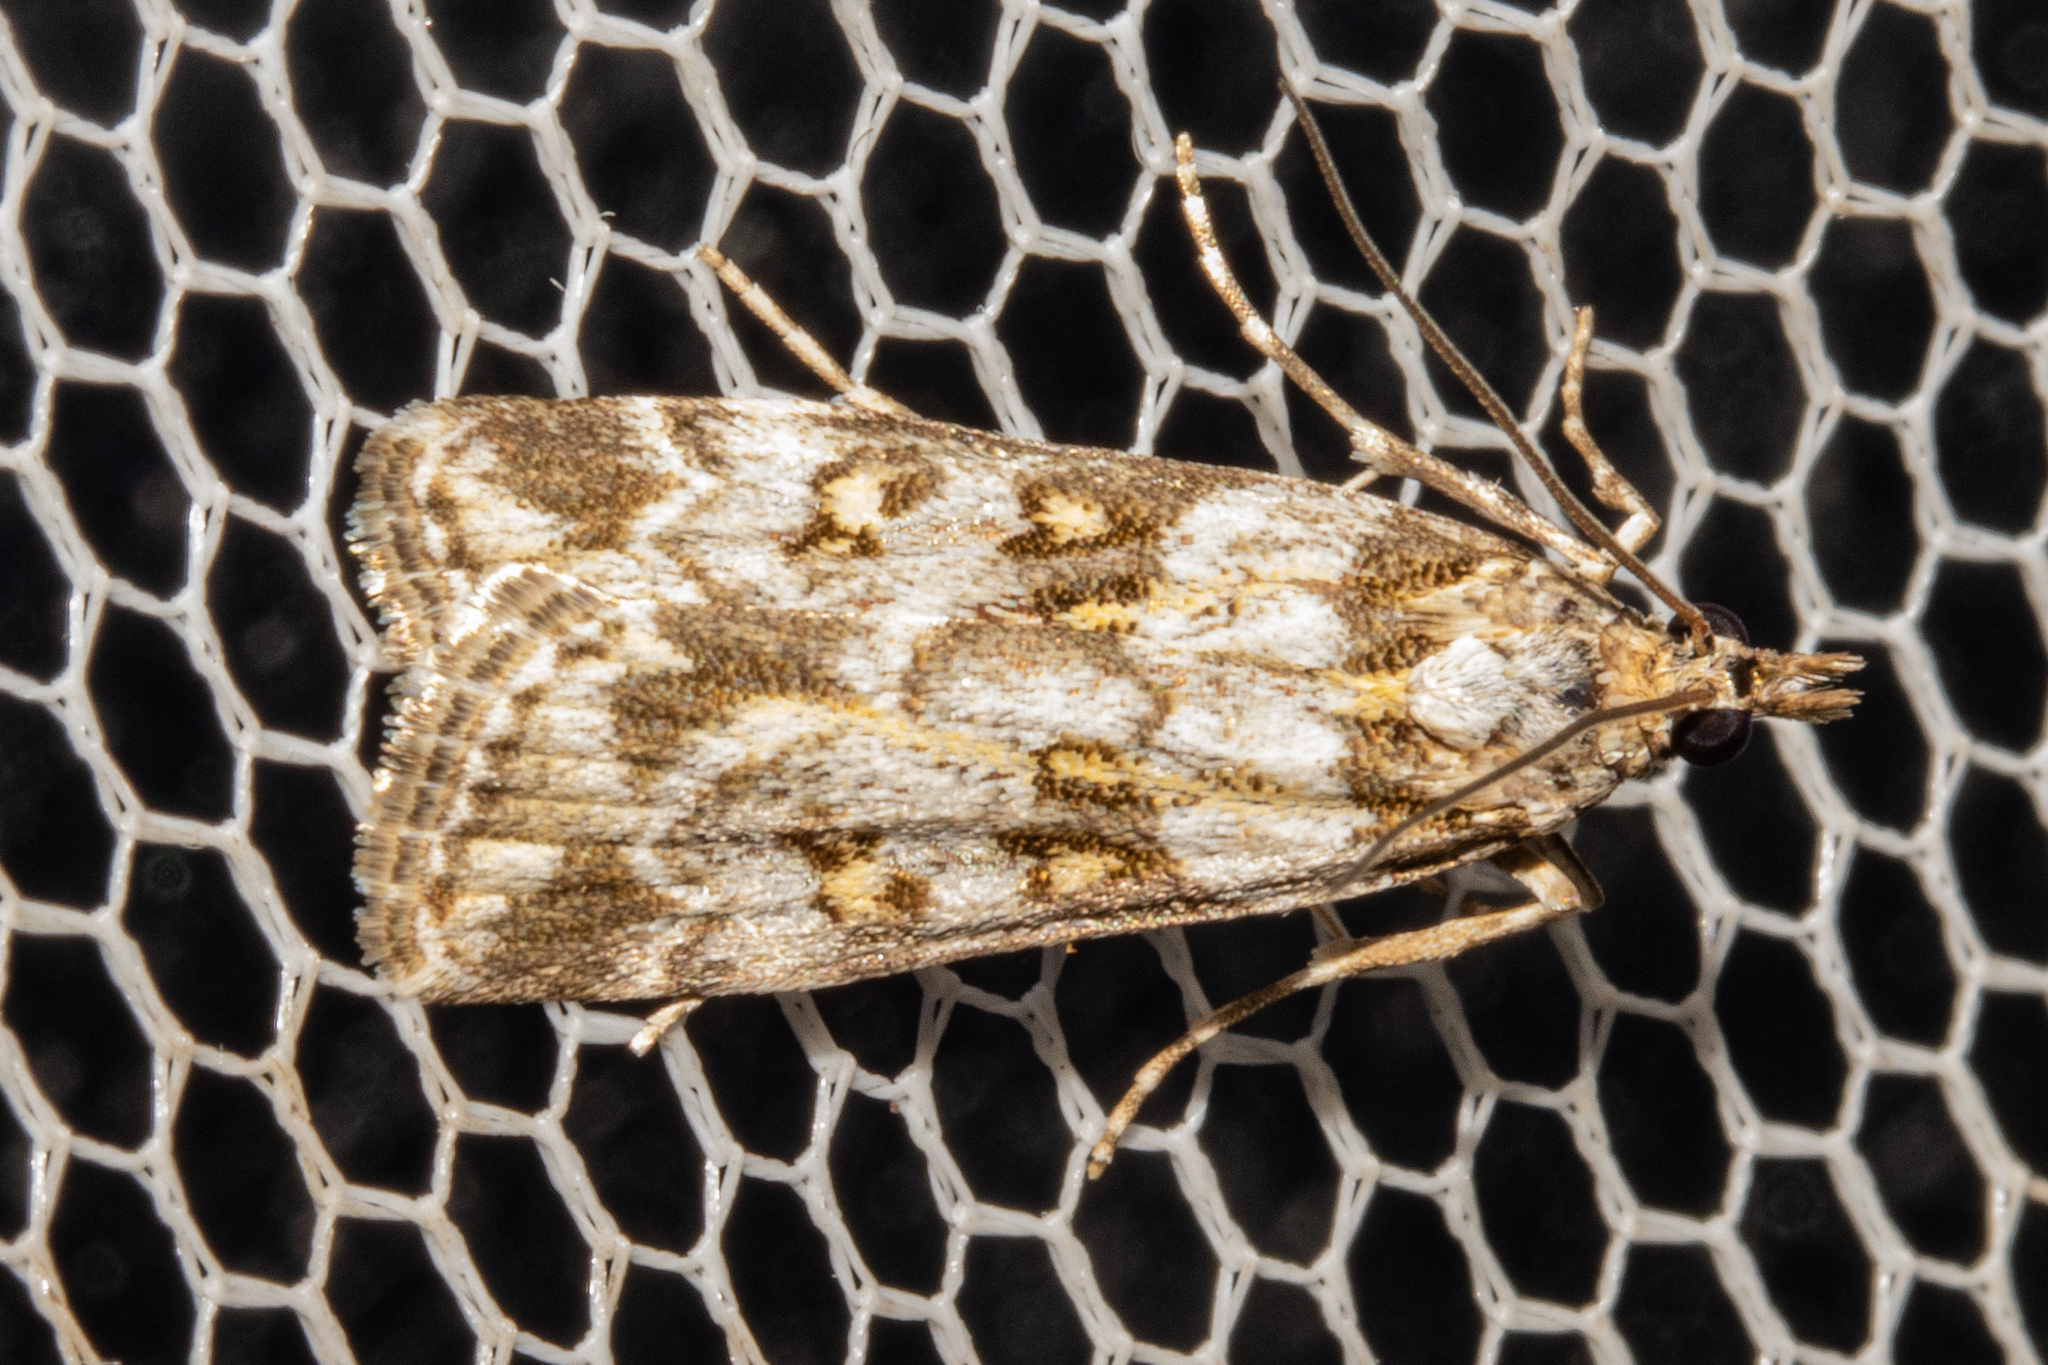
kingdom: Animalia
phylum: Arthropoda
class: Insecta
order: Lepidoptera
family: Crambidae
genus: Scoparia
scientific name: Scoparia tetracycla
